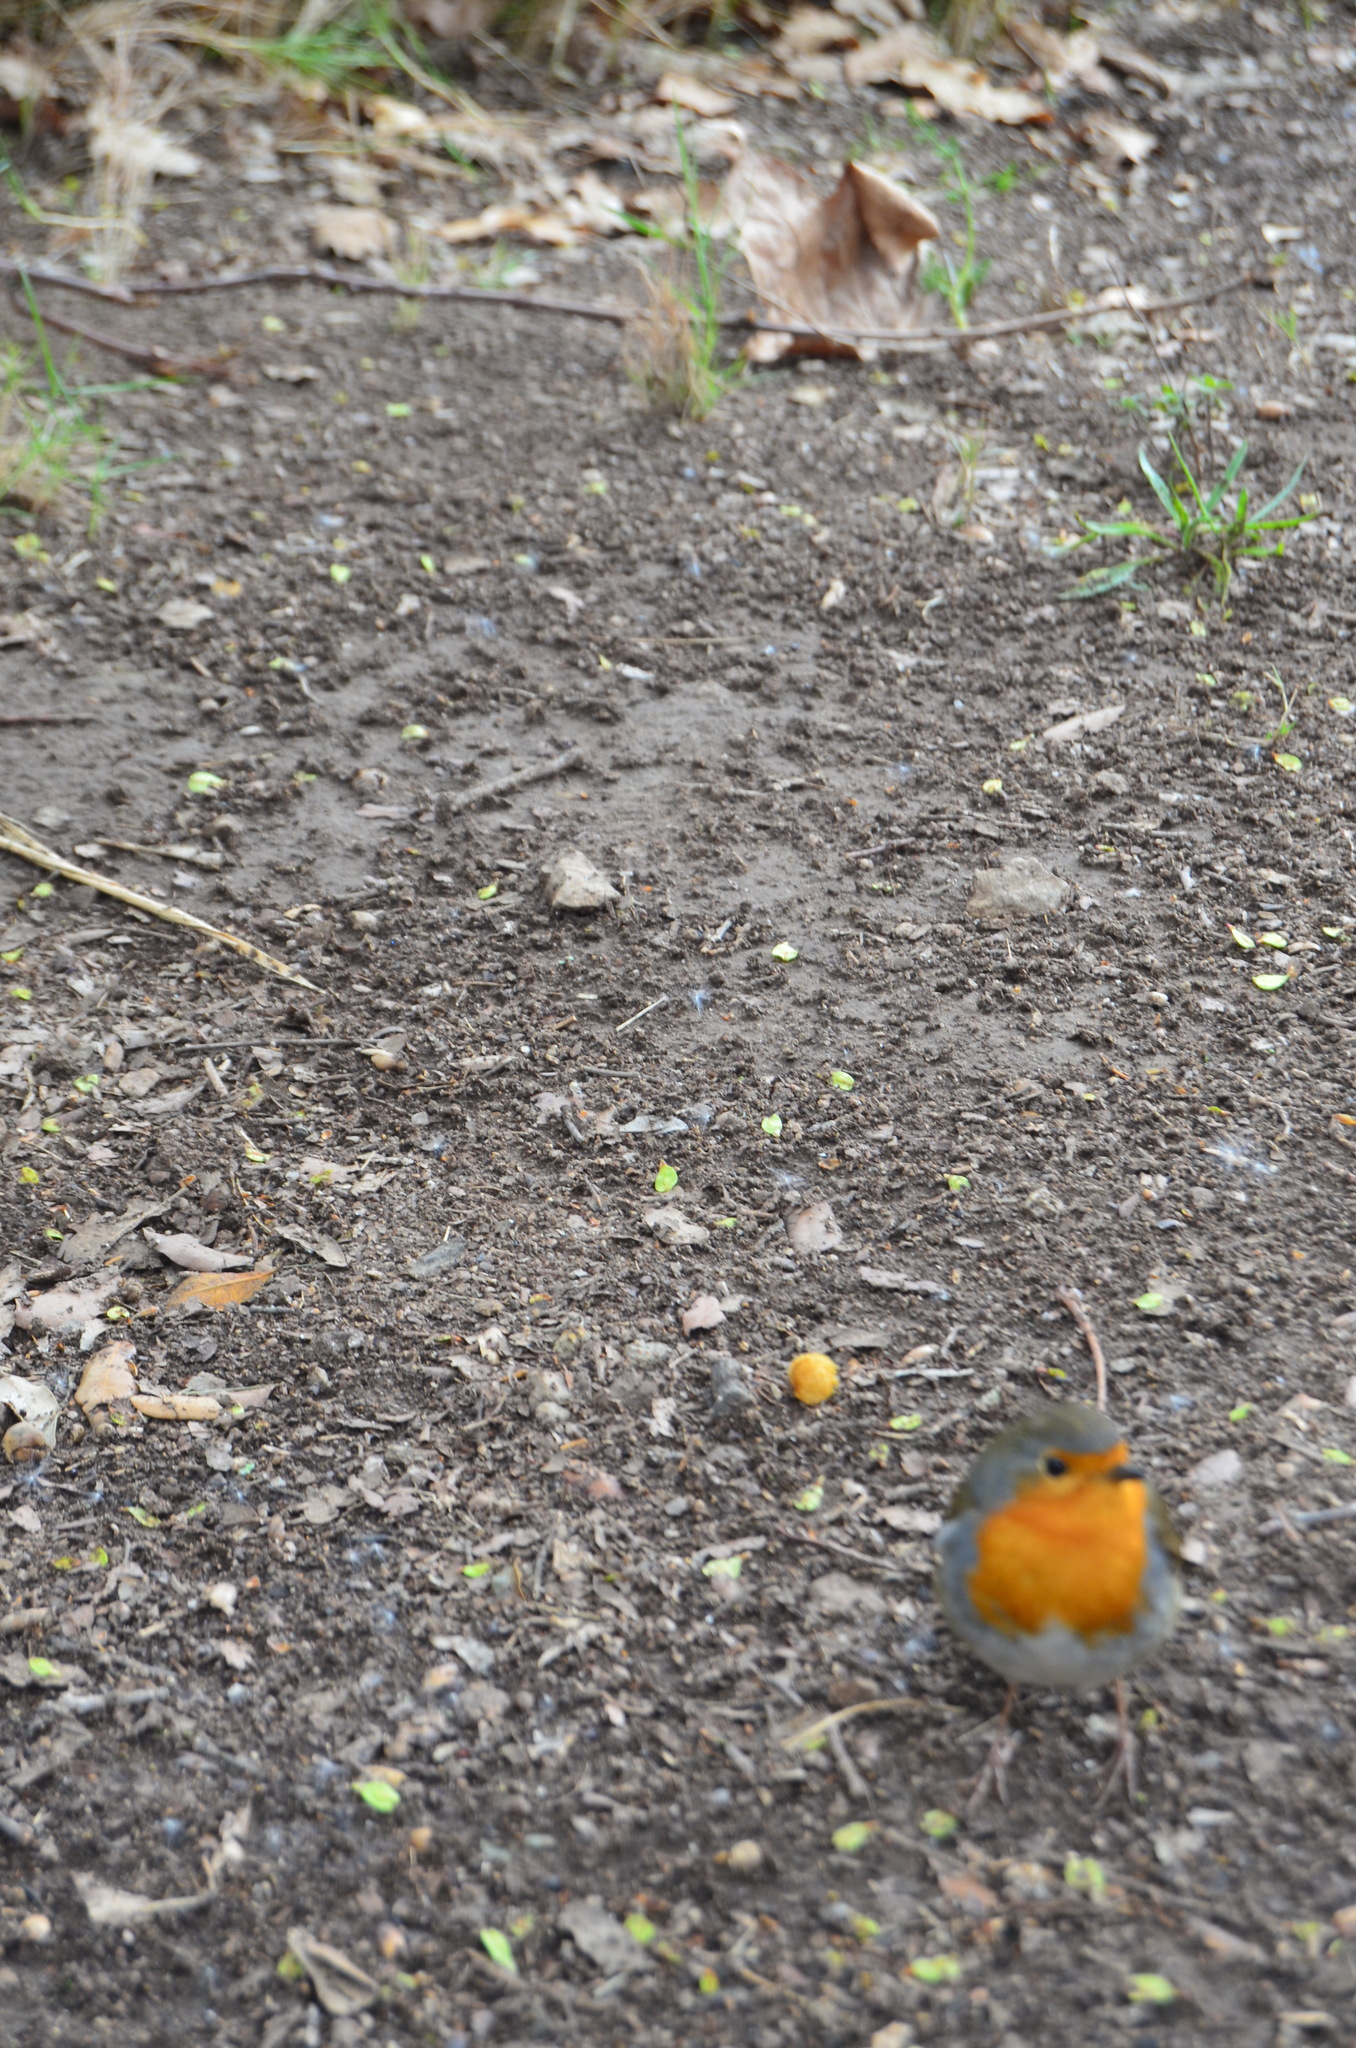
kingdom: Animalia
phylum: Chordata
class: Aves
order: Passeriformes
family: Muscicapidae
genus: Erithacus
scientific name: Erithacus rubecula
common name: European robin
